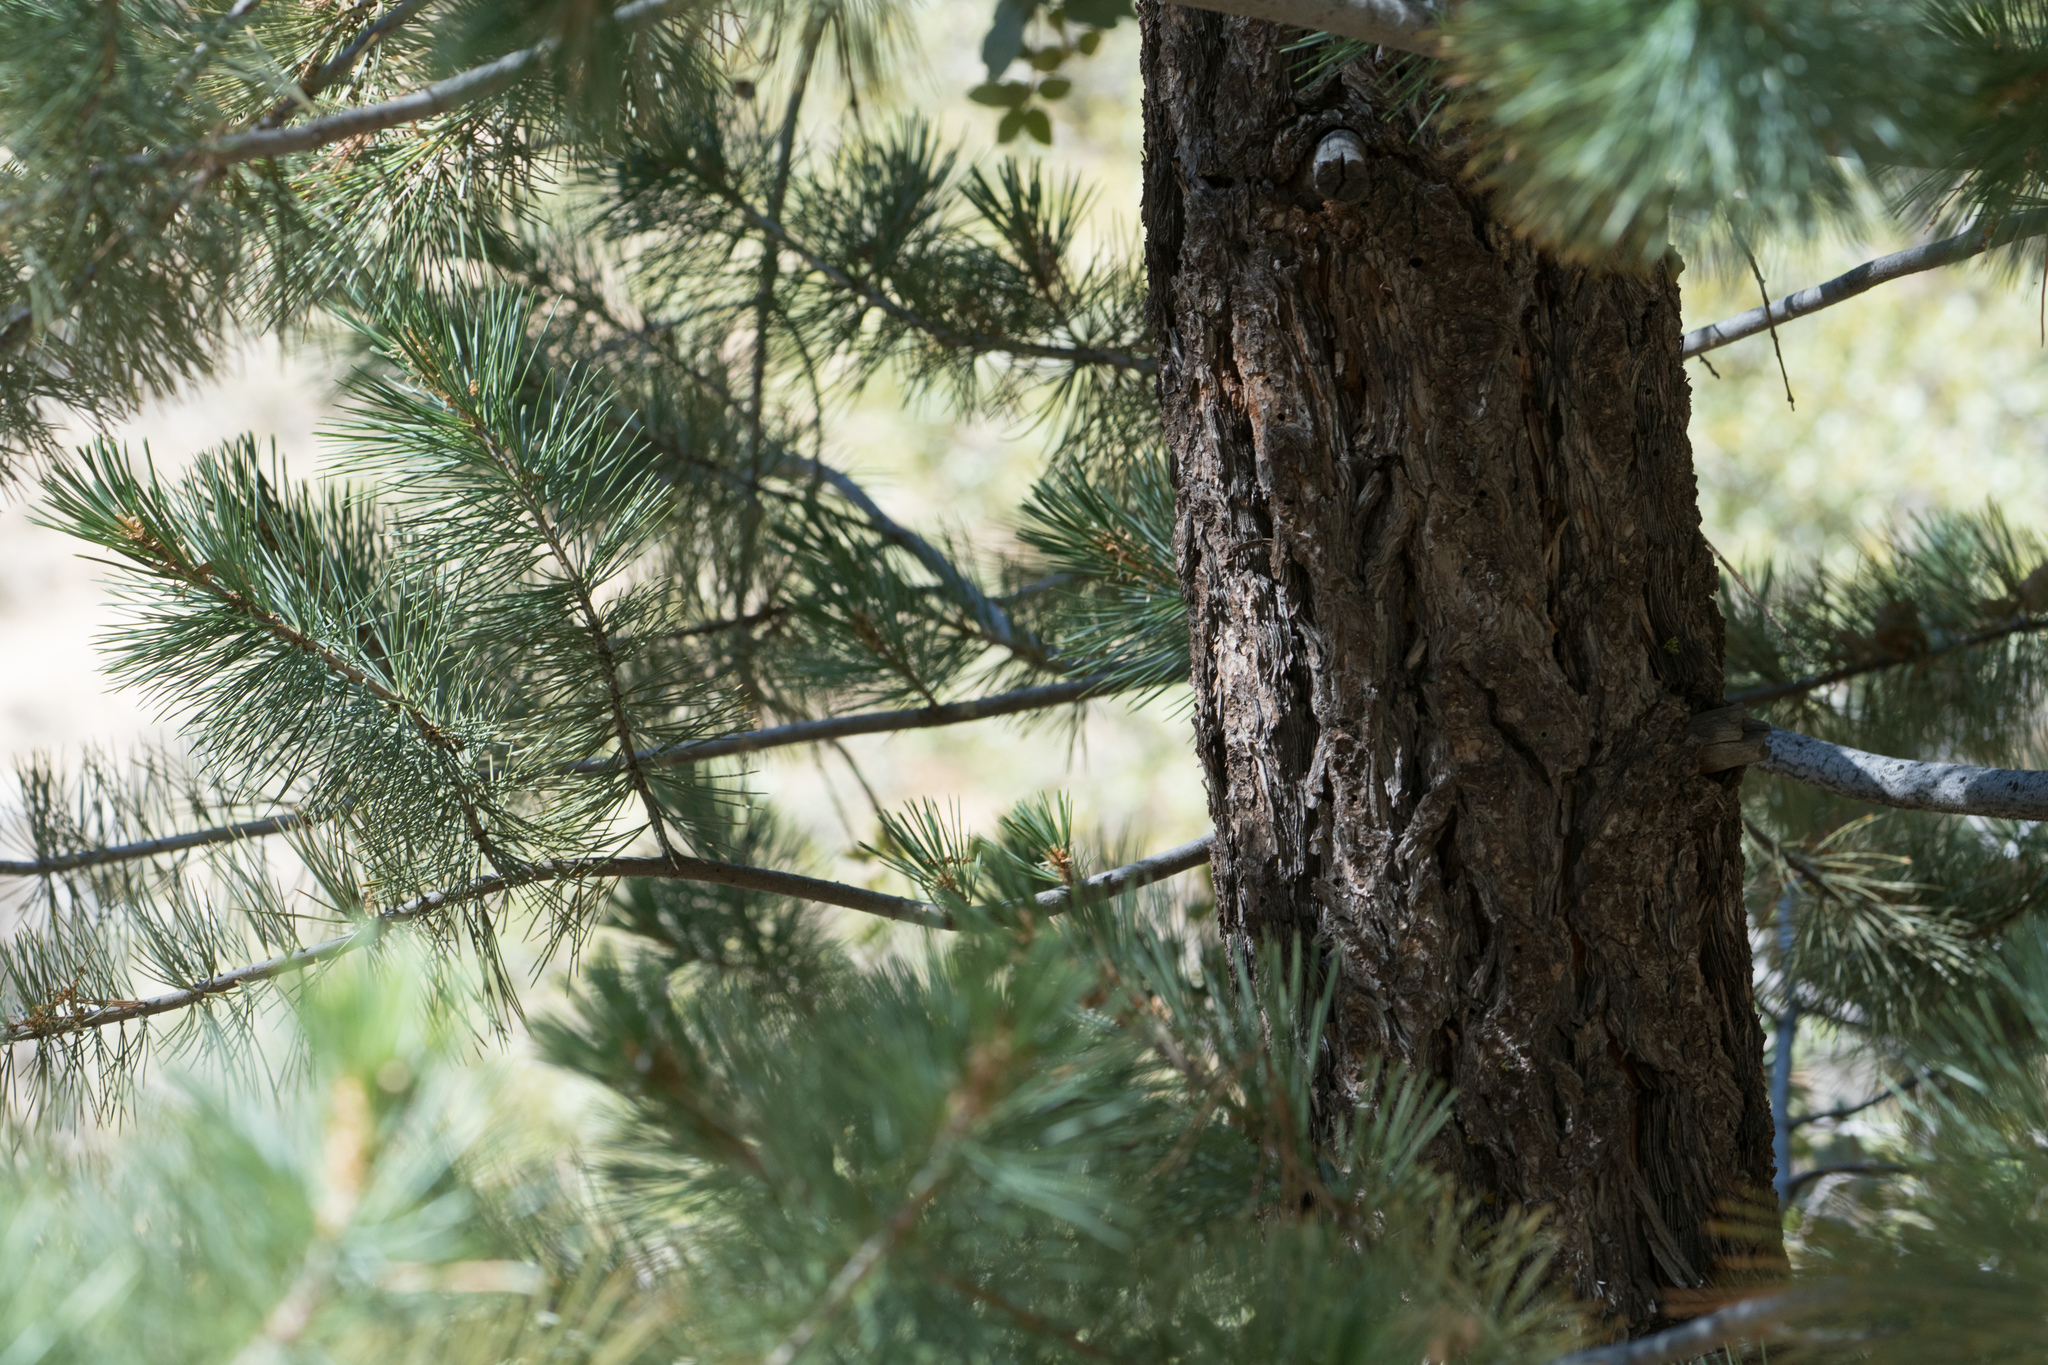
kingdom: Plantae
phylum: Tracheophyta
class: Pinopsida
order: Pinales
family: Pinaceae
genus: Pinus
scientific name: Pinus lambertiana
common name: Sugar pine
